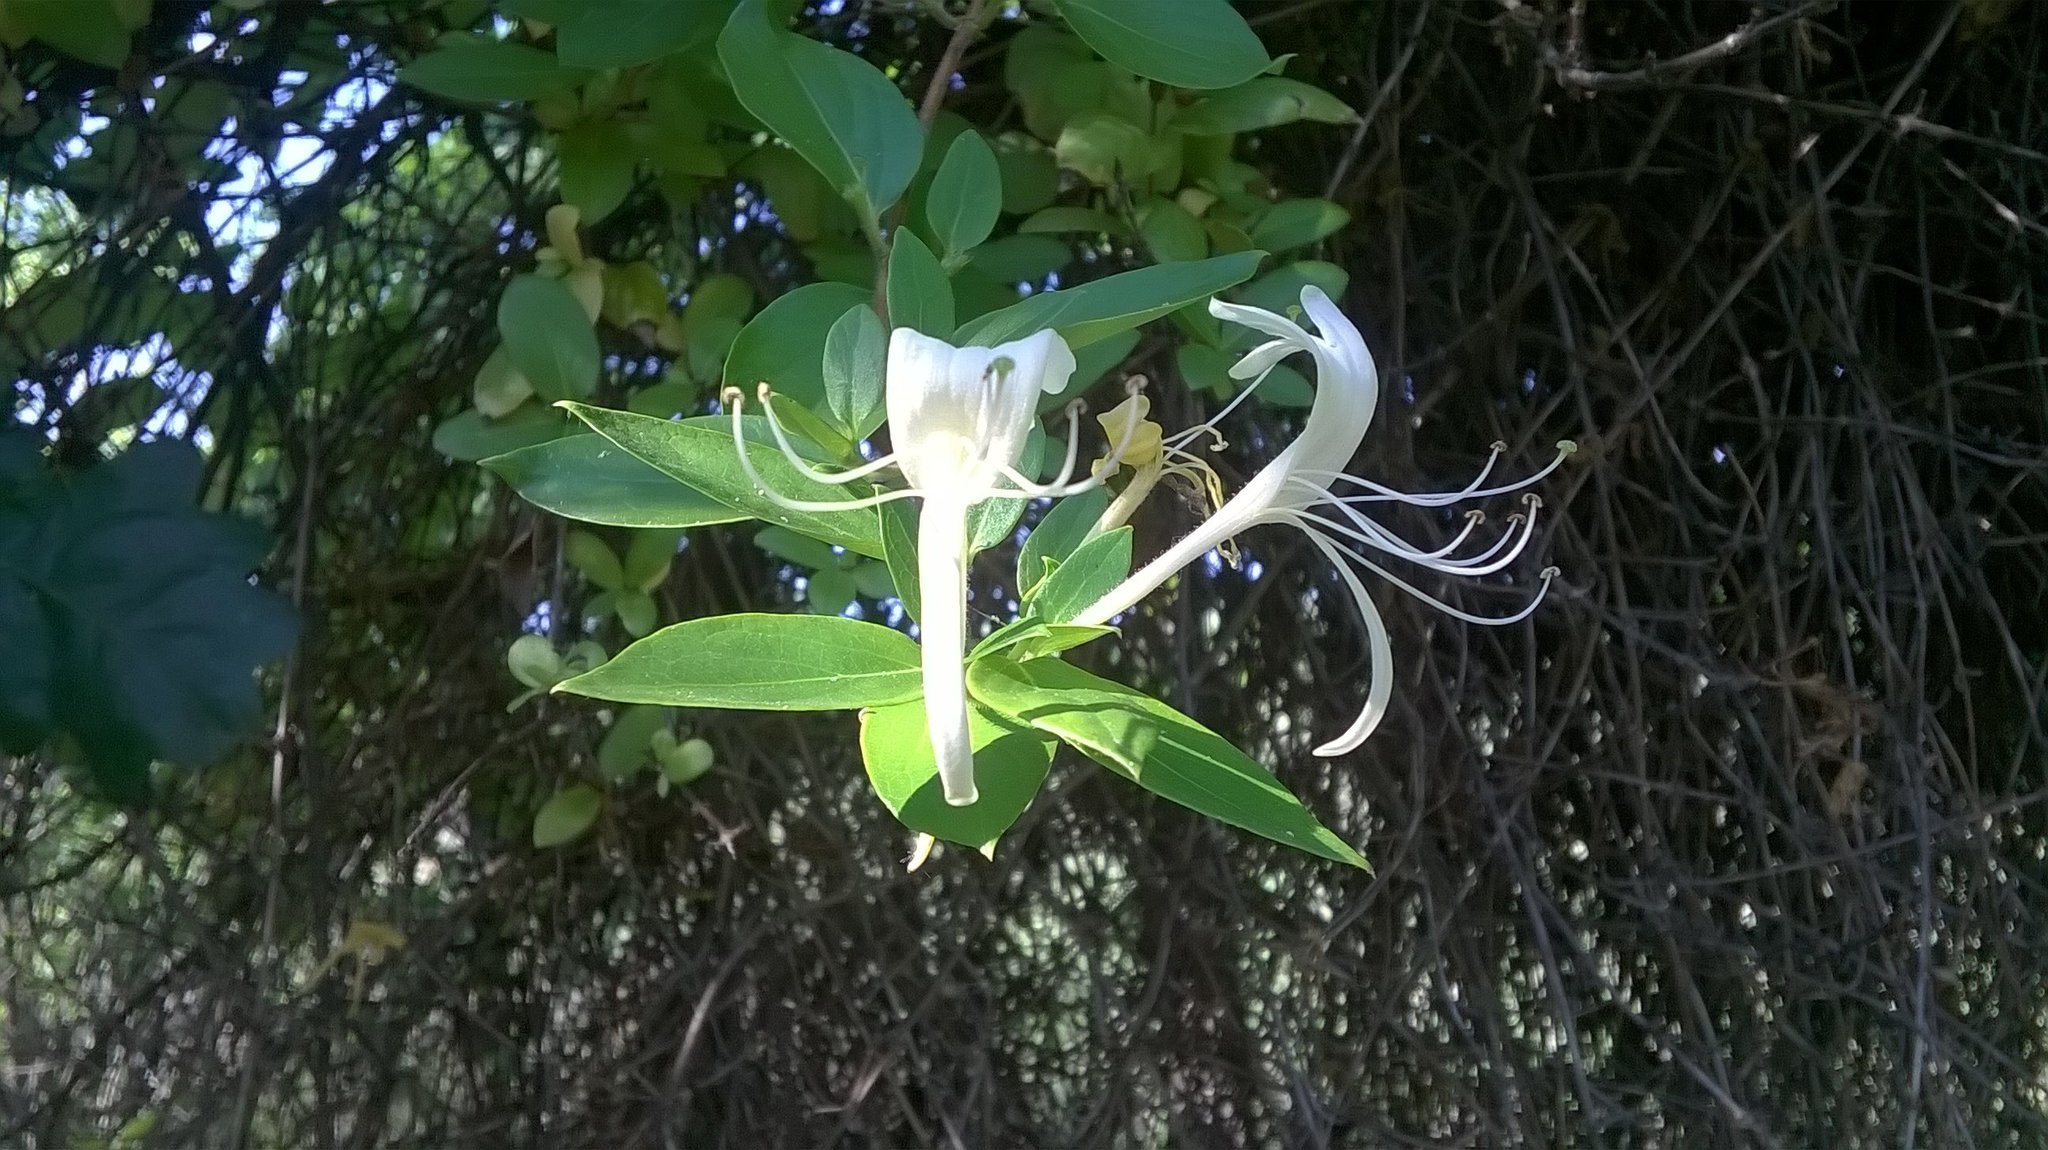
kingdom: Plantae
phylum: Tracheophyta
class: Magnoliopsida
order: Dipsacales
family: Caprifoliaceae
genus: Lonicera
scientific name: Lonicera japonica
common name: Japanese honeysuckle
